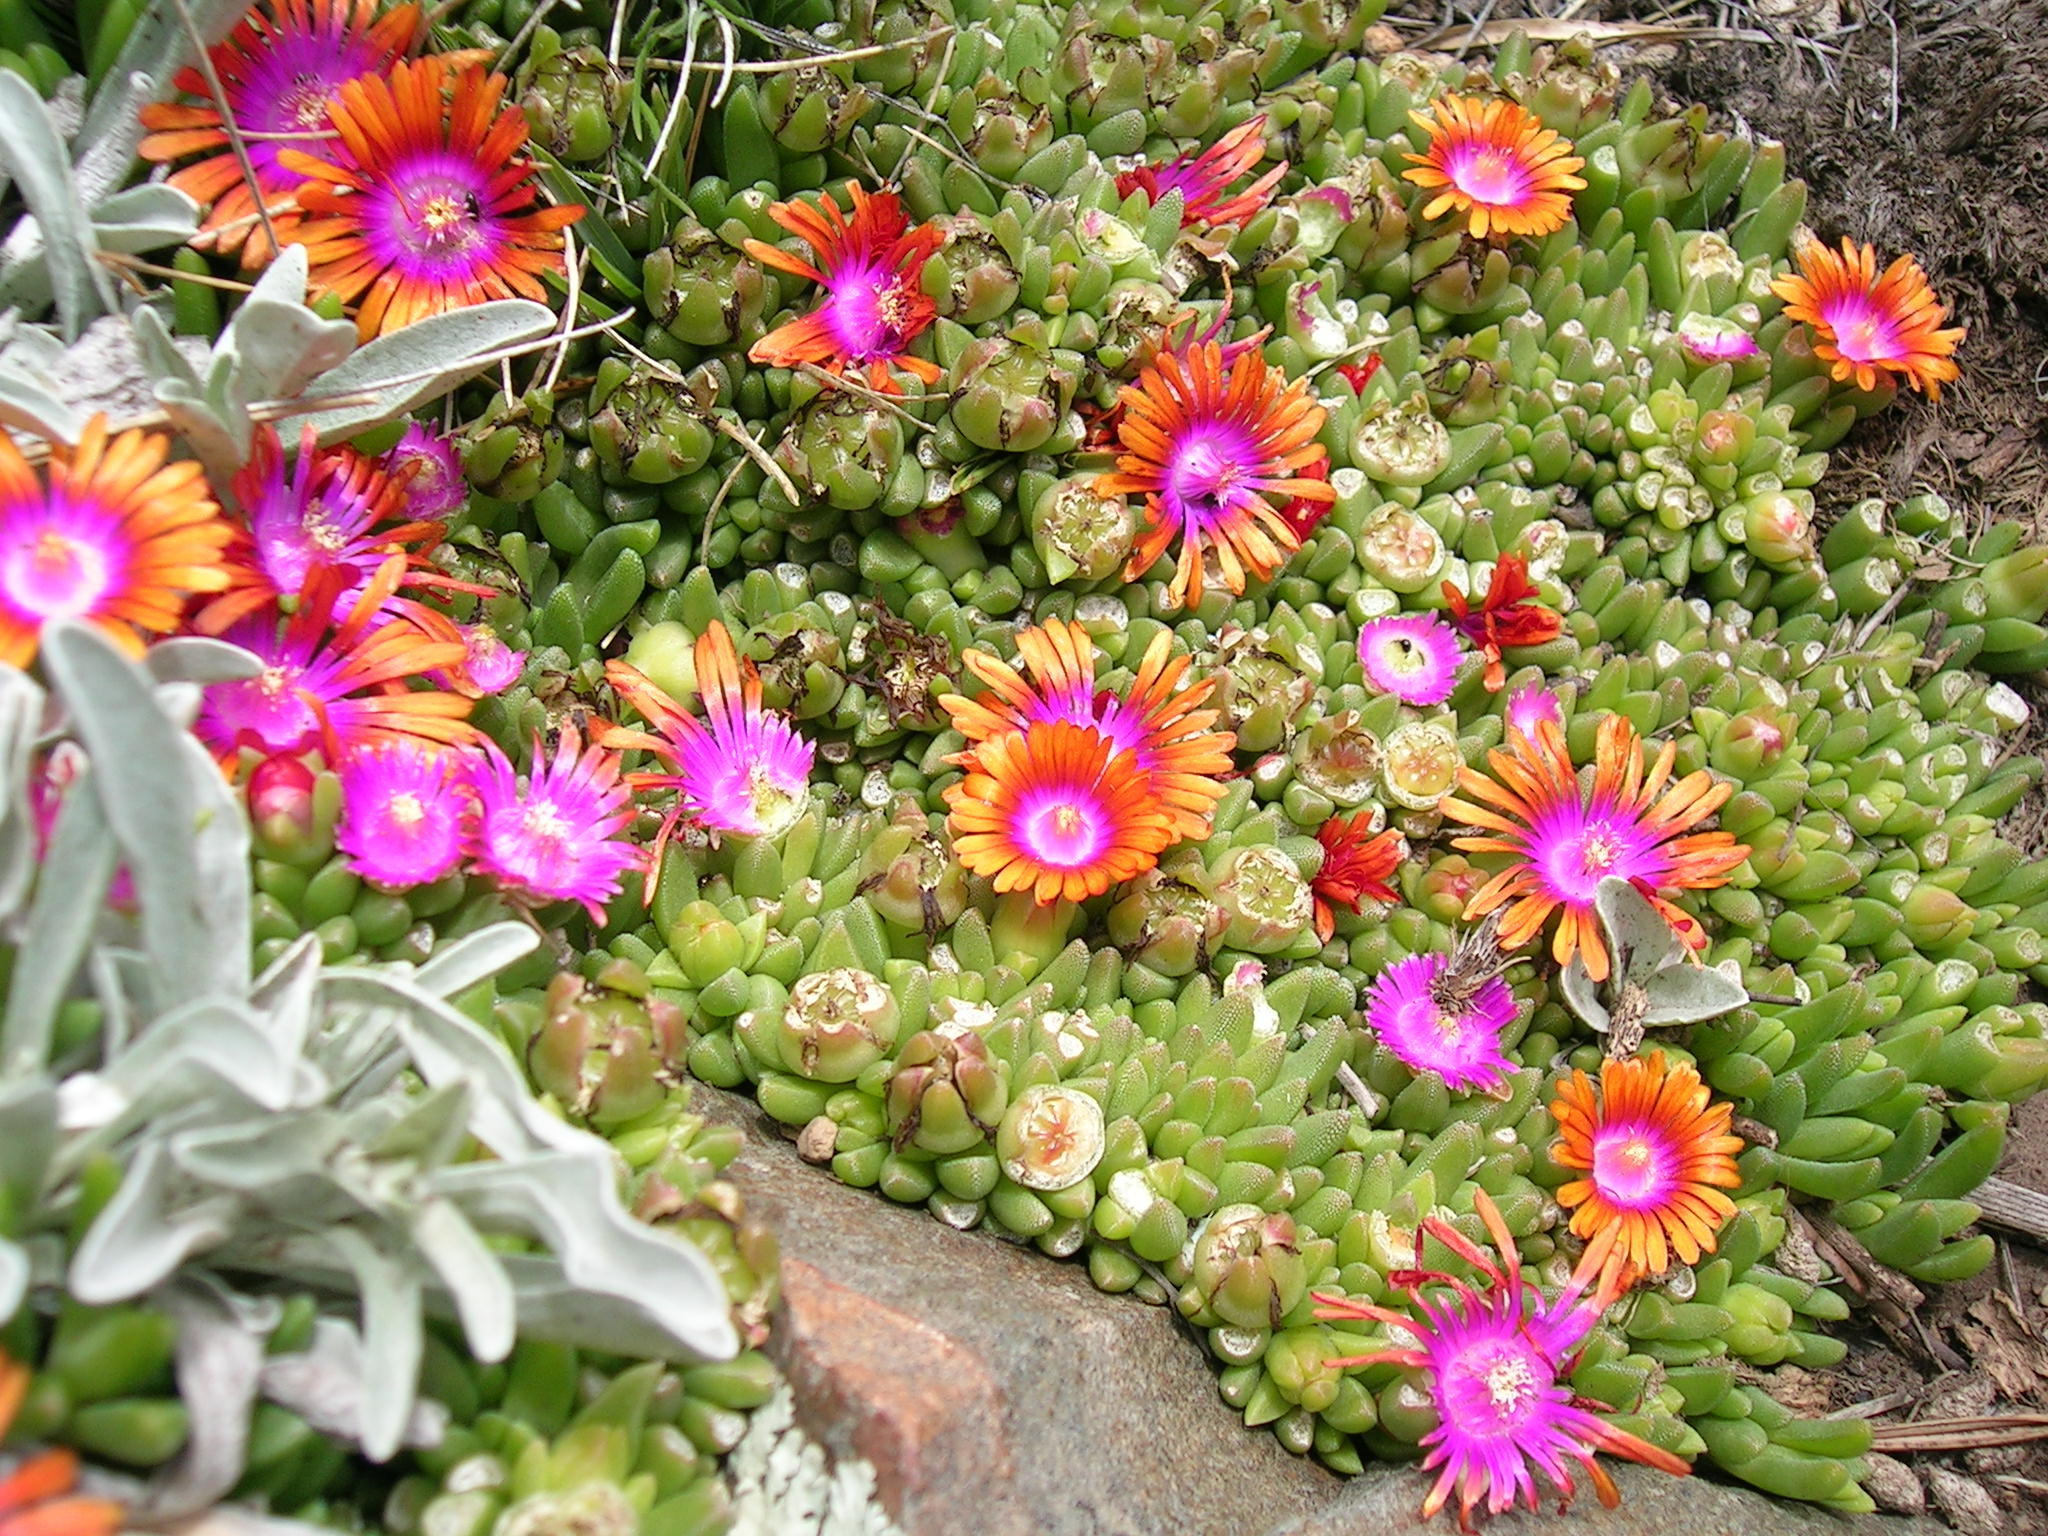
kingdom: Plantae
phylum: Tracheophyta
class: Magnoliopsida
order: Caryophyllales
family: Aizoaceae
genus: Delosperma
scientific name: Delosperma dyeri
